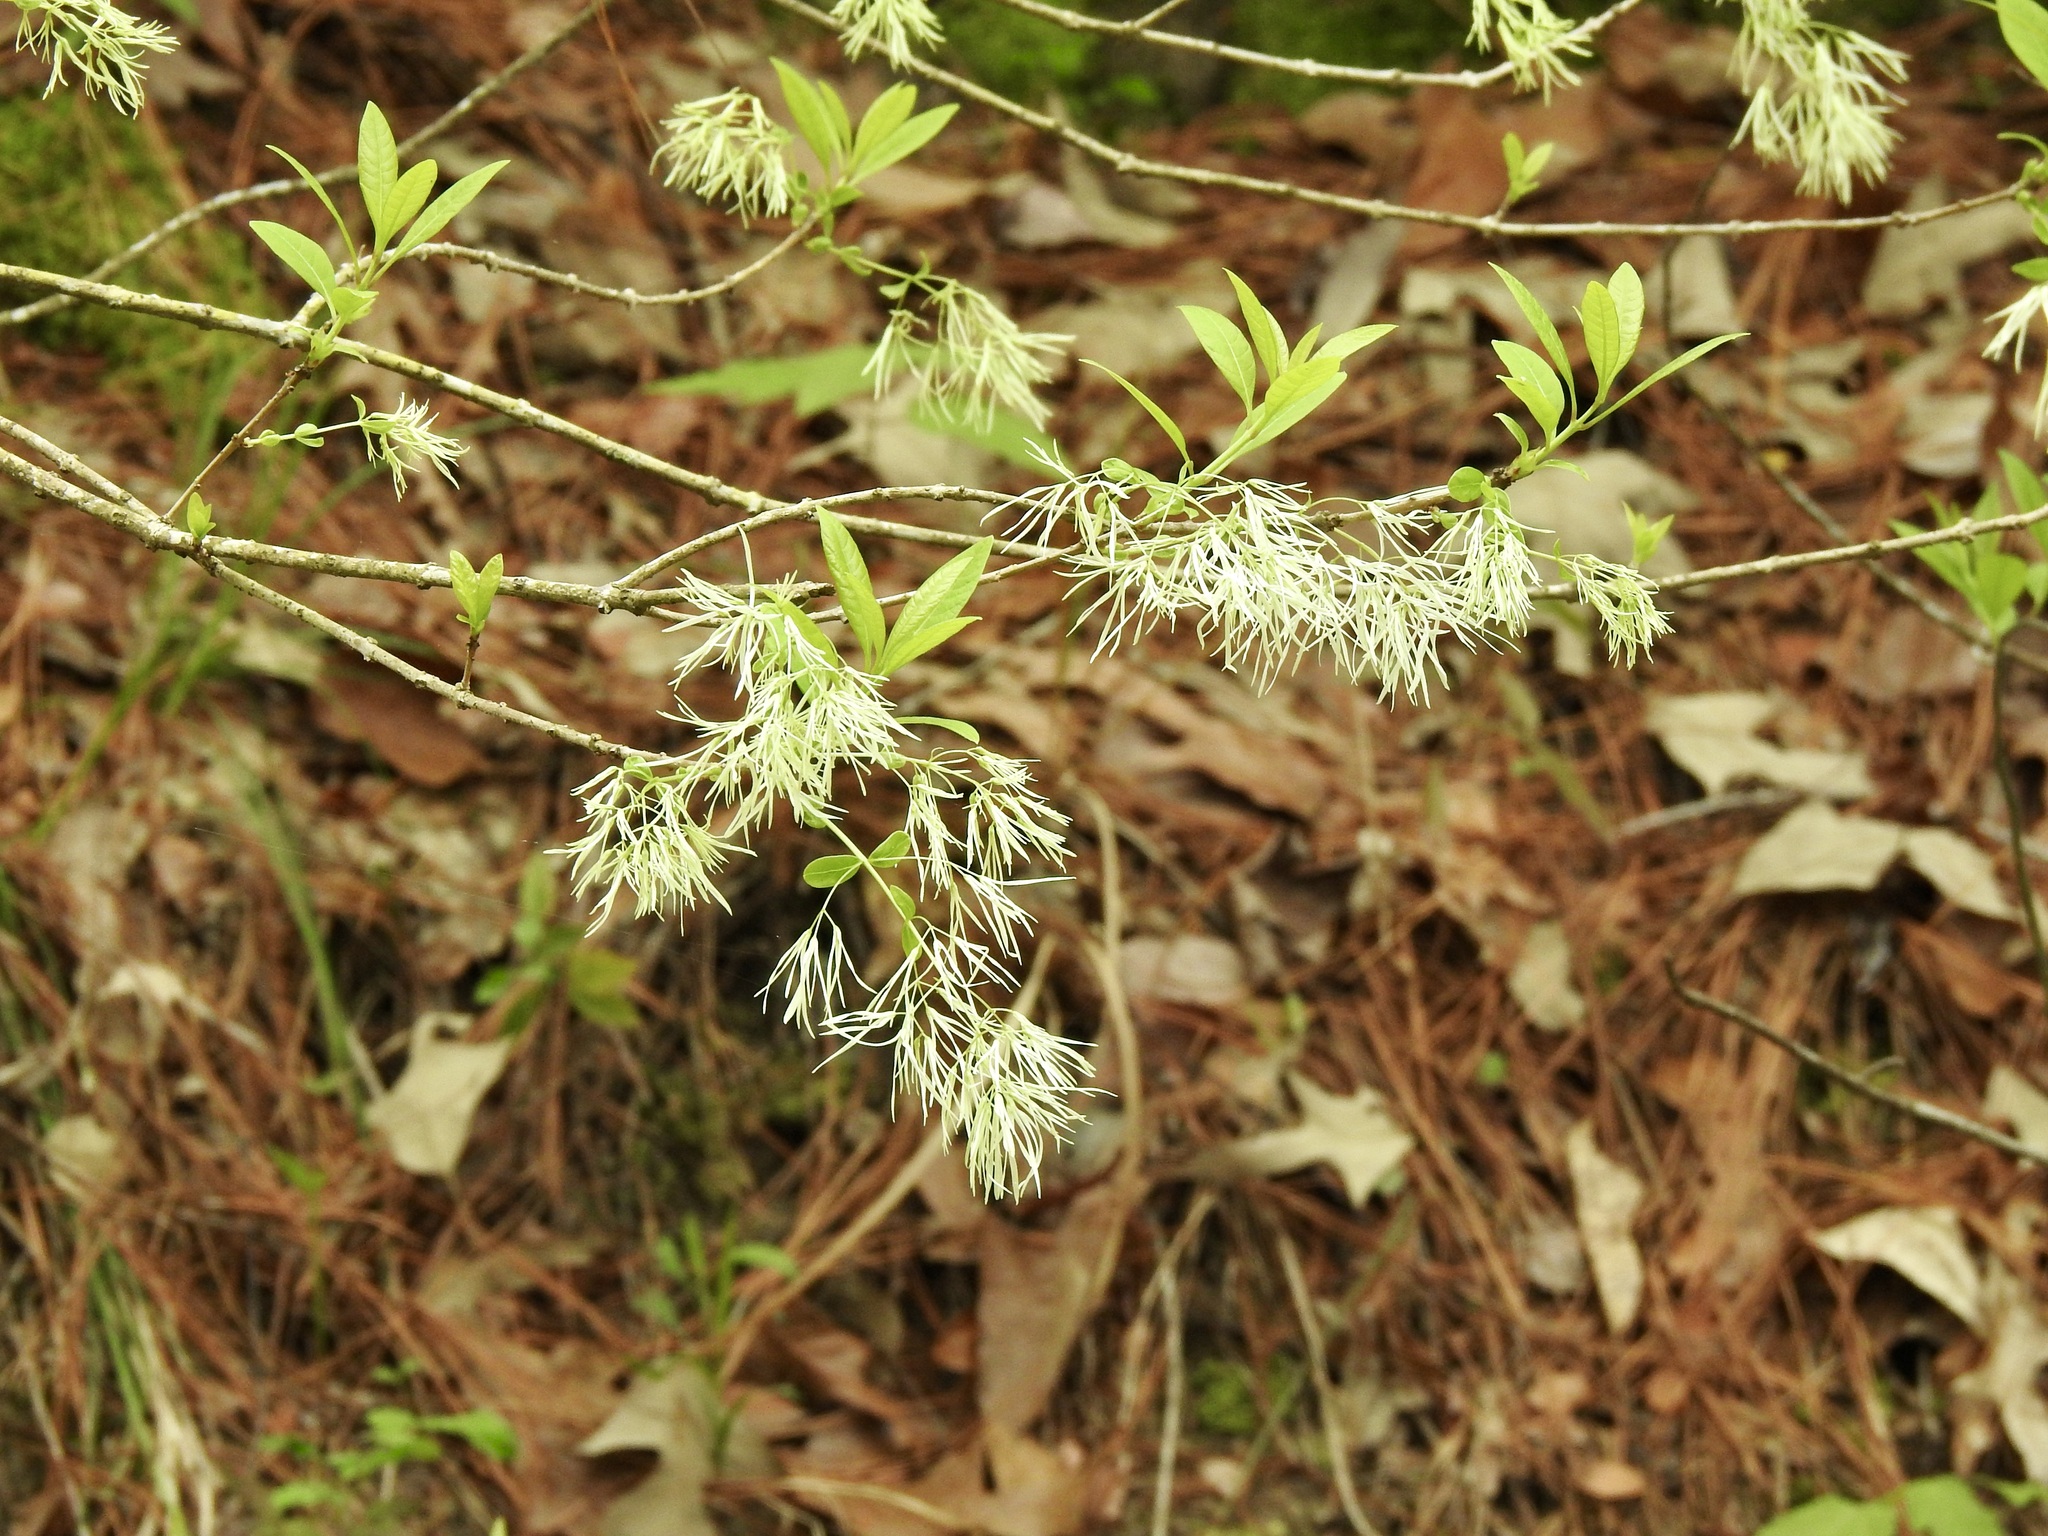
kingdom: Plantae
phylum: Tracheophyta
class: Magnoliopsida
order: Lamiales
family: Oleaceae
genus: Chionanthus
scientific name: Chionanthus virginicus
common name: American fringetree
